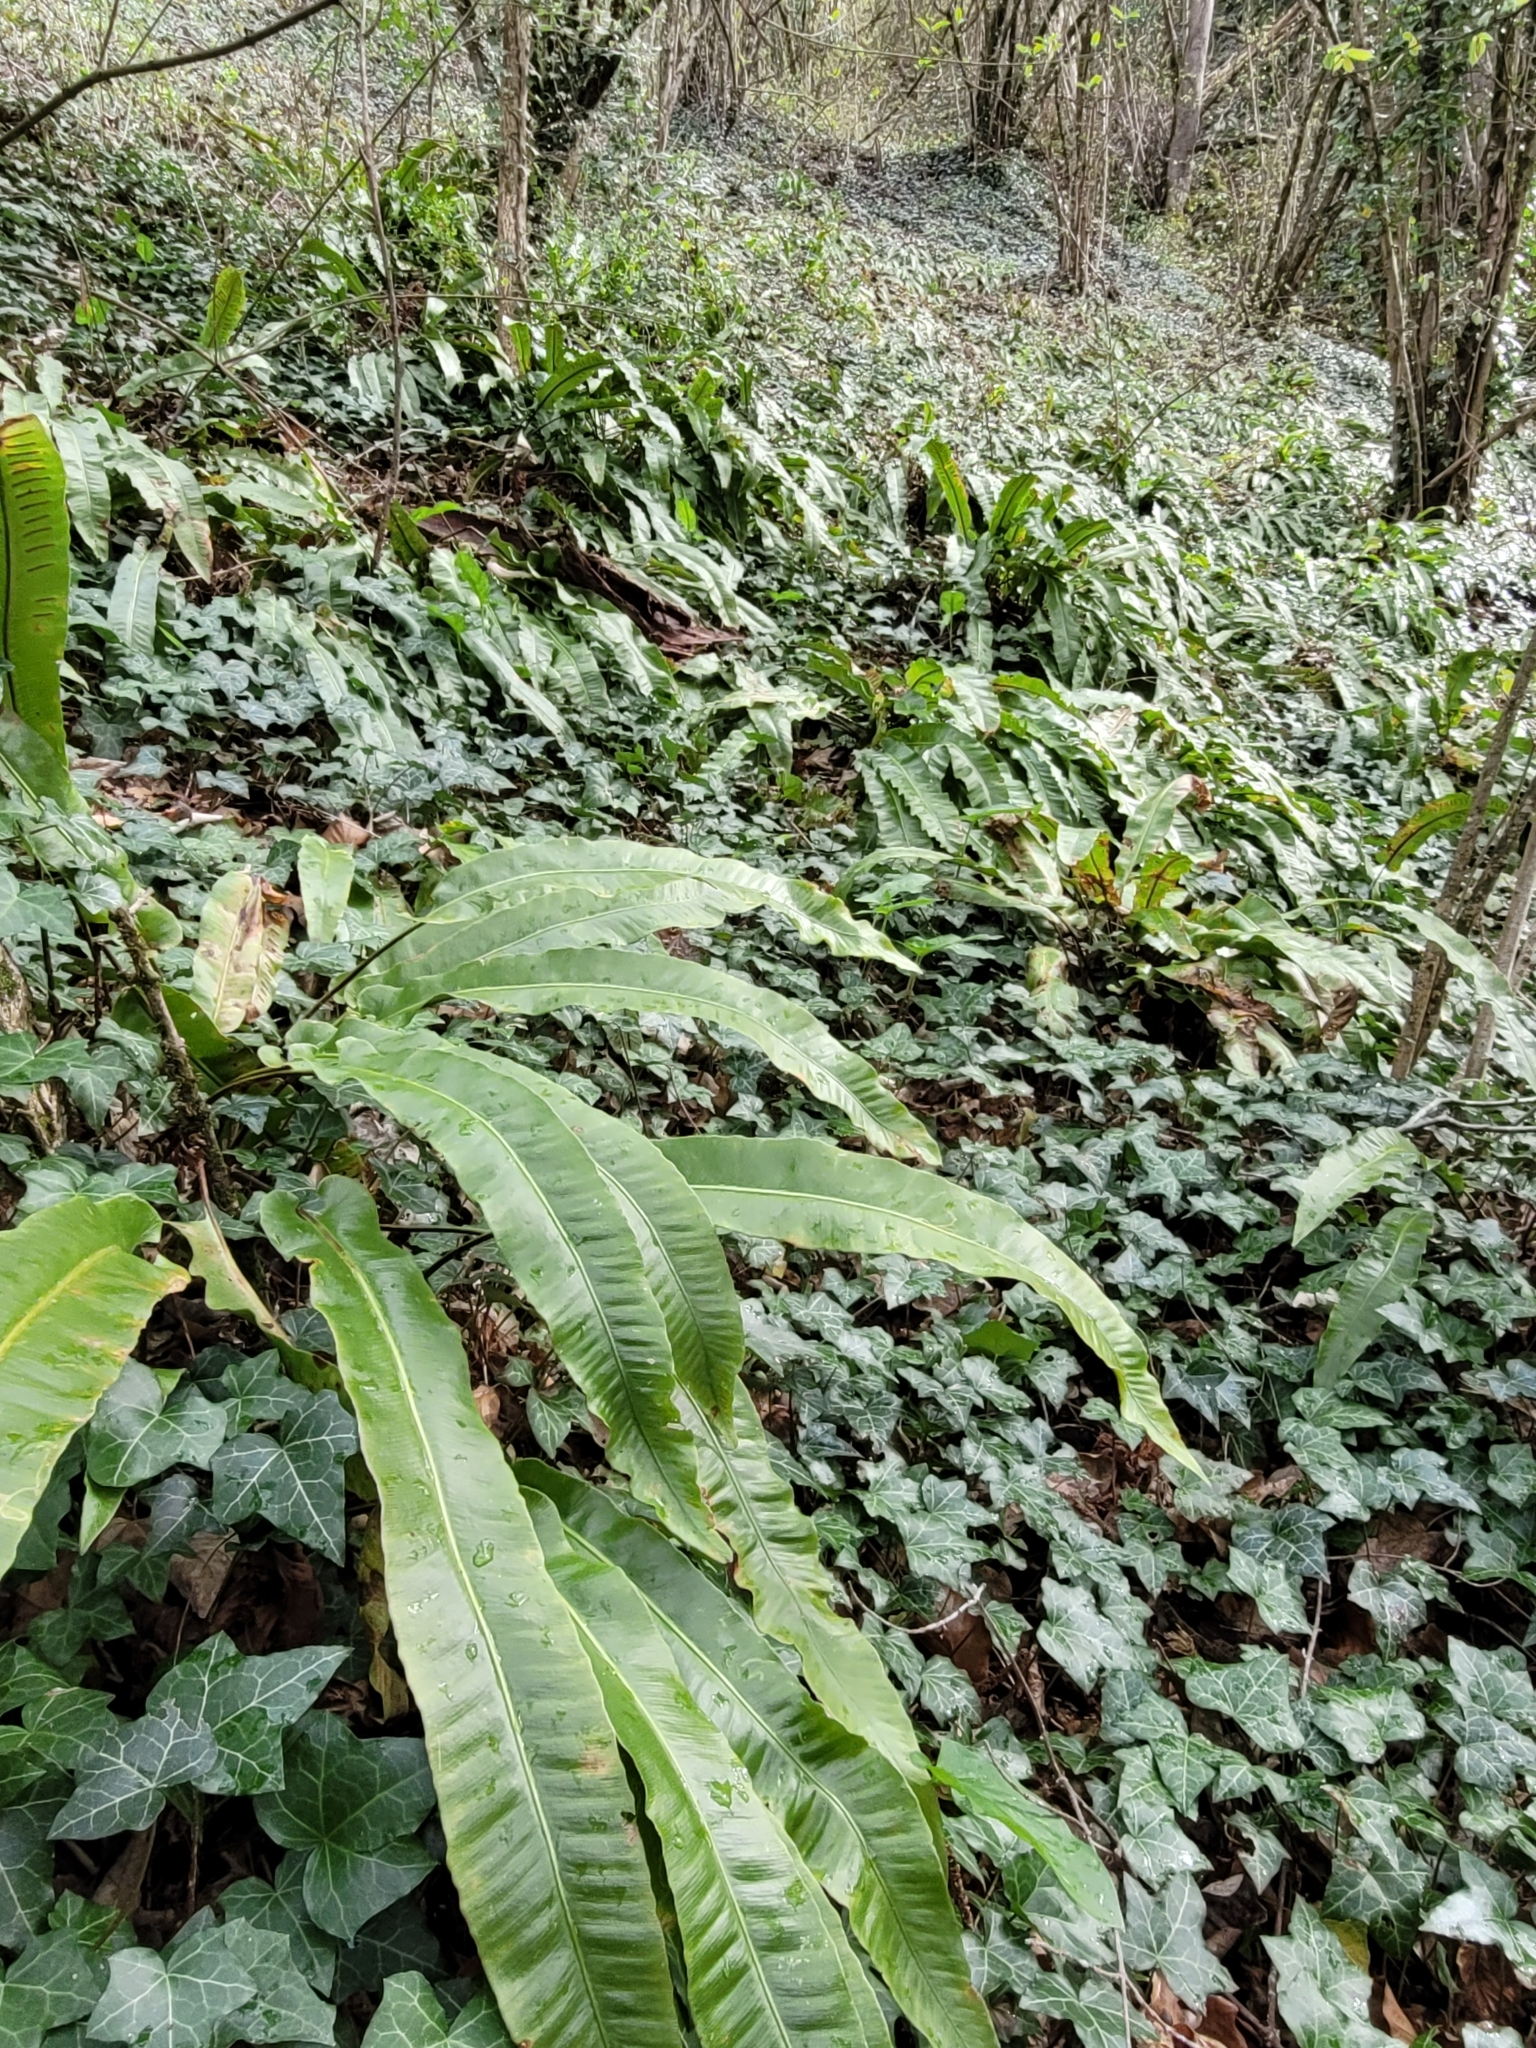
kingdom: Plantae
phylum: Tracheophyta
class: Polypodiopsida
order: Polypodiales
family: Aspleniaceae
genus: Asplenium
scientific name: Asplenium scolopendrium
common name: Hart's-tongue fern
